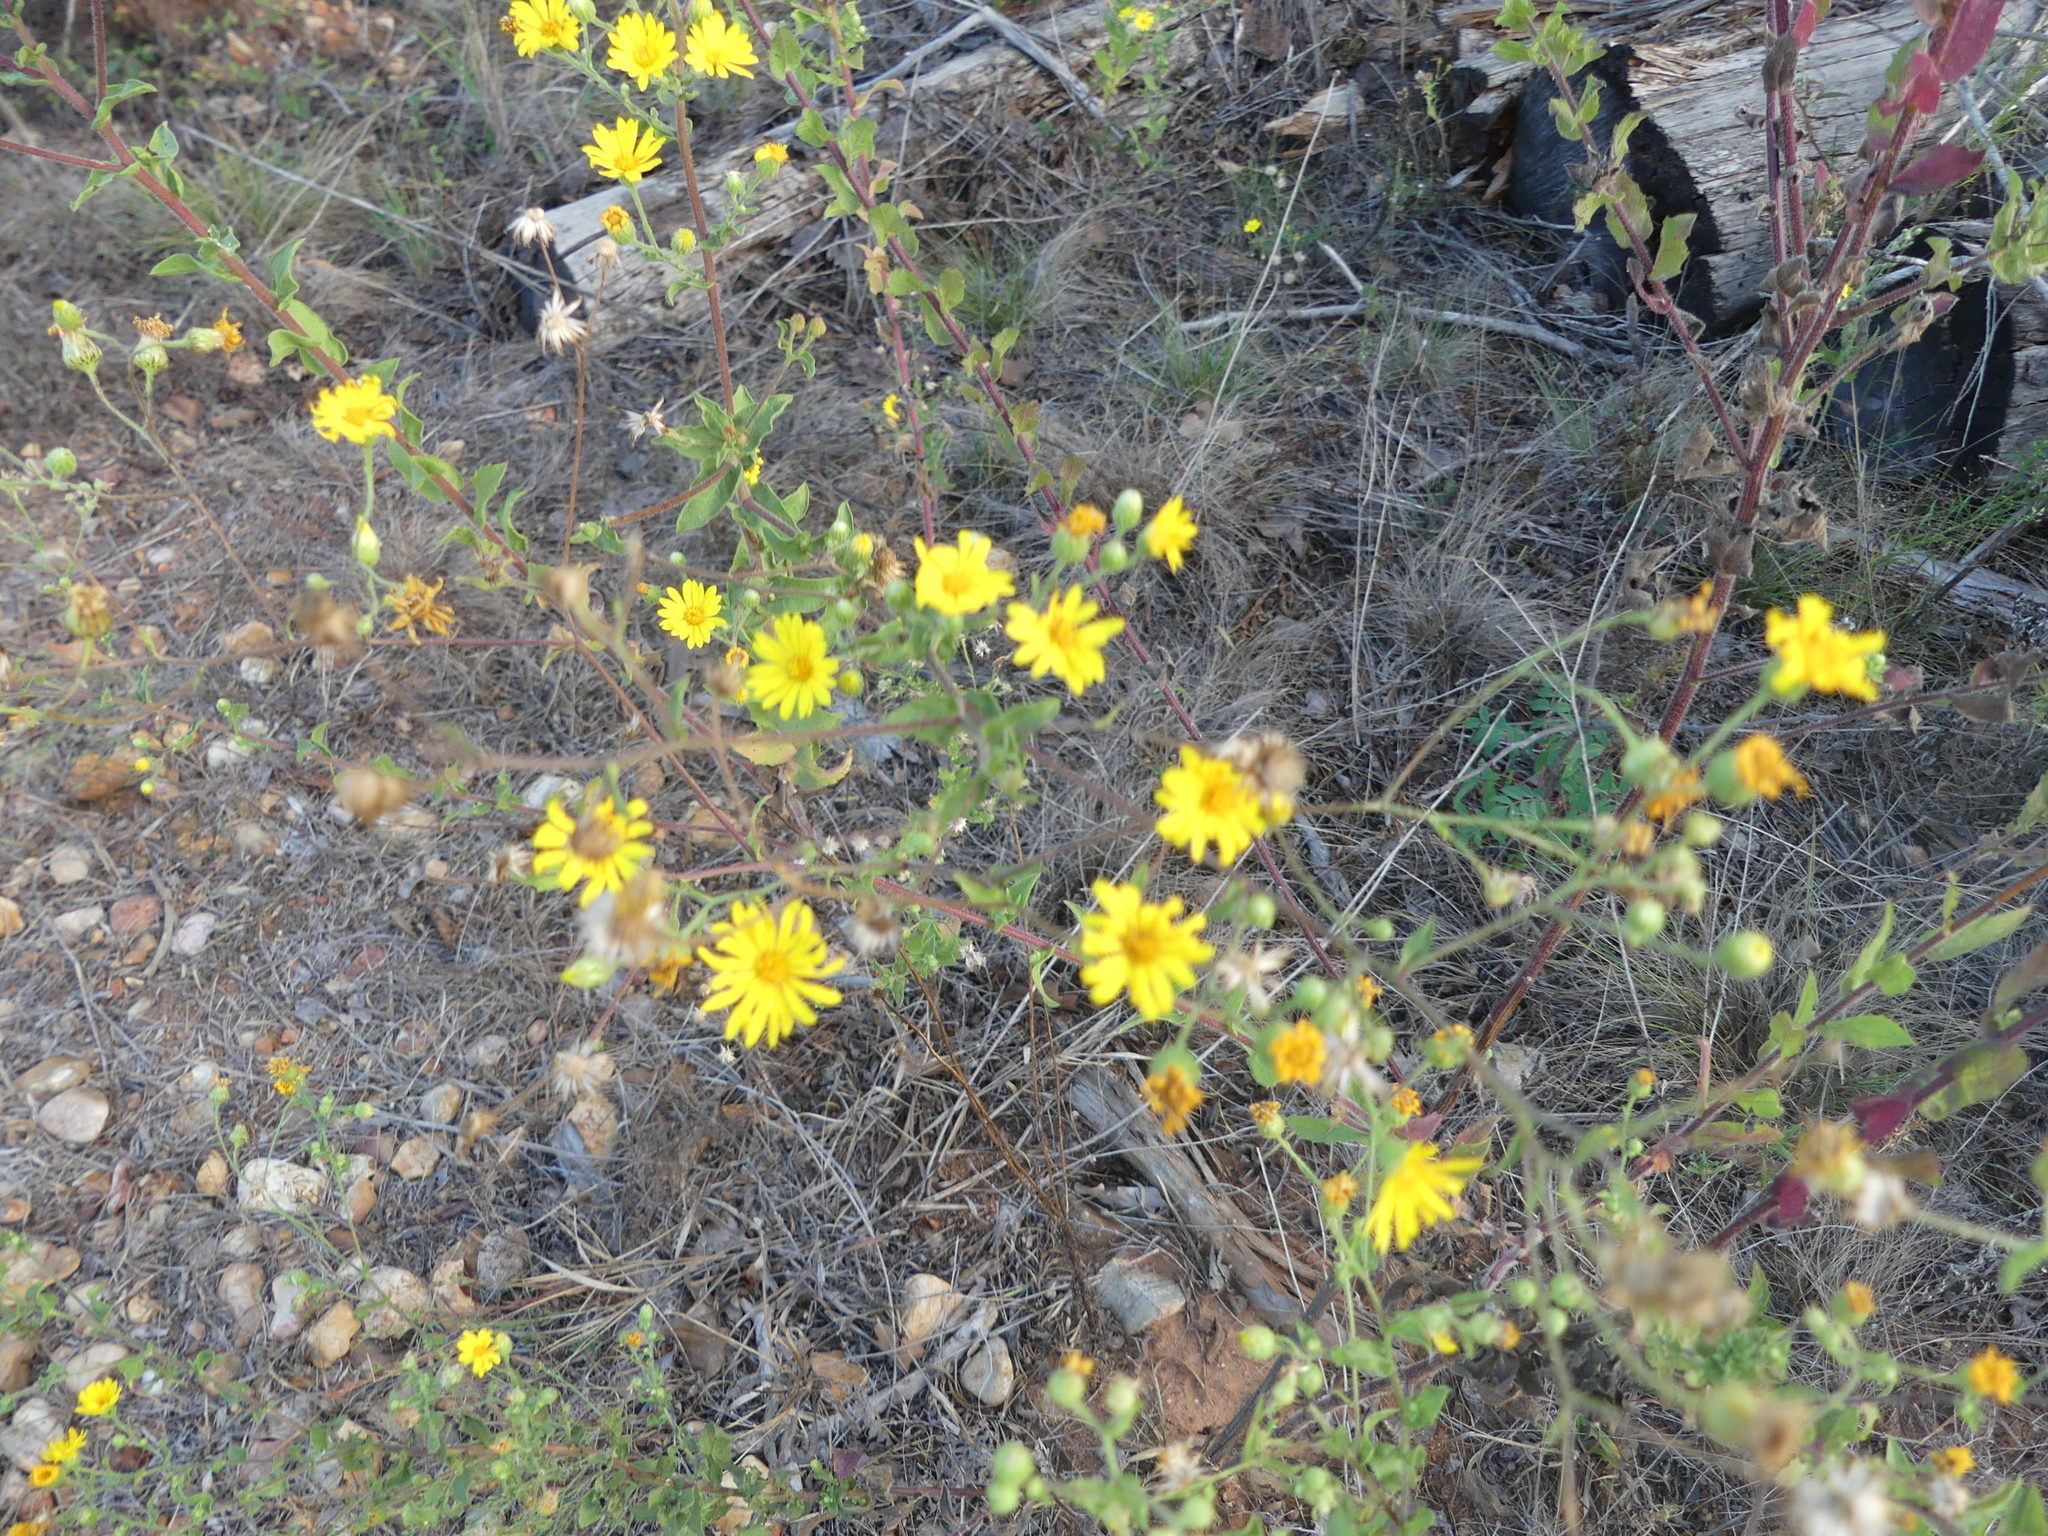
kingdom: Plantae
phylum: Tracheophyta
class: Magnoliopsida
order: Asterales
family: Asteraceae
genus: Heterotheca
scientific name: Heterotheca subaxillaris
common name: Camphorweed
